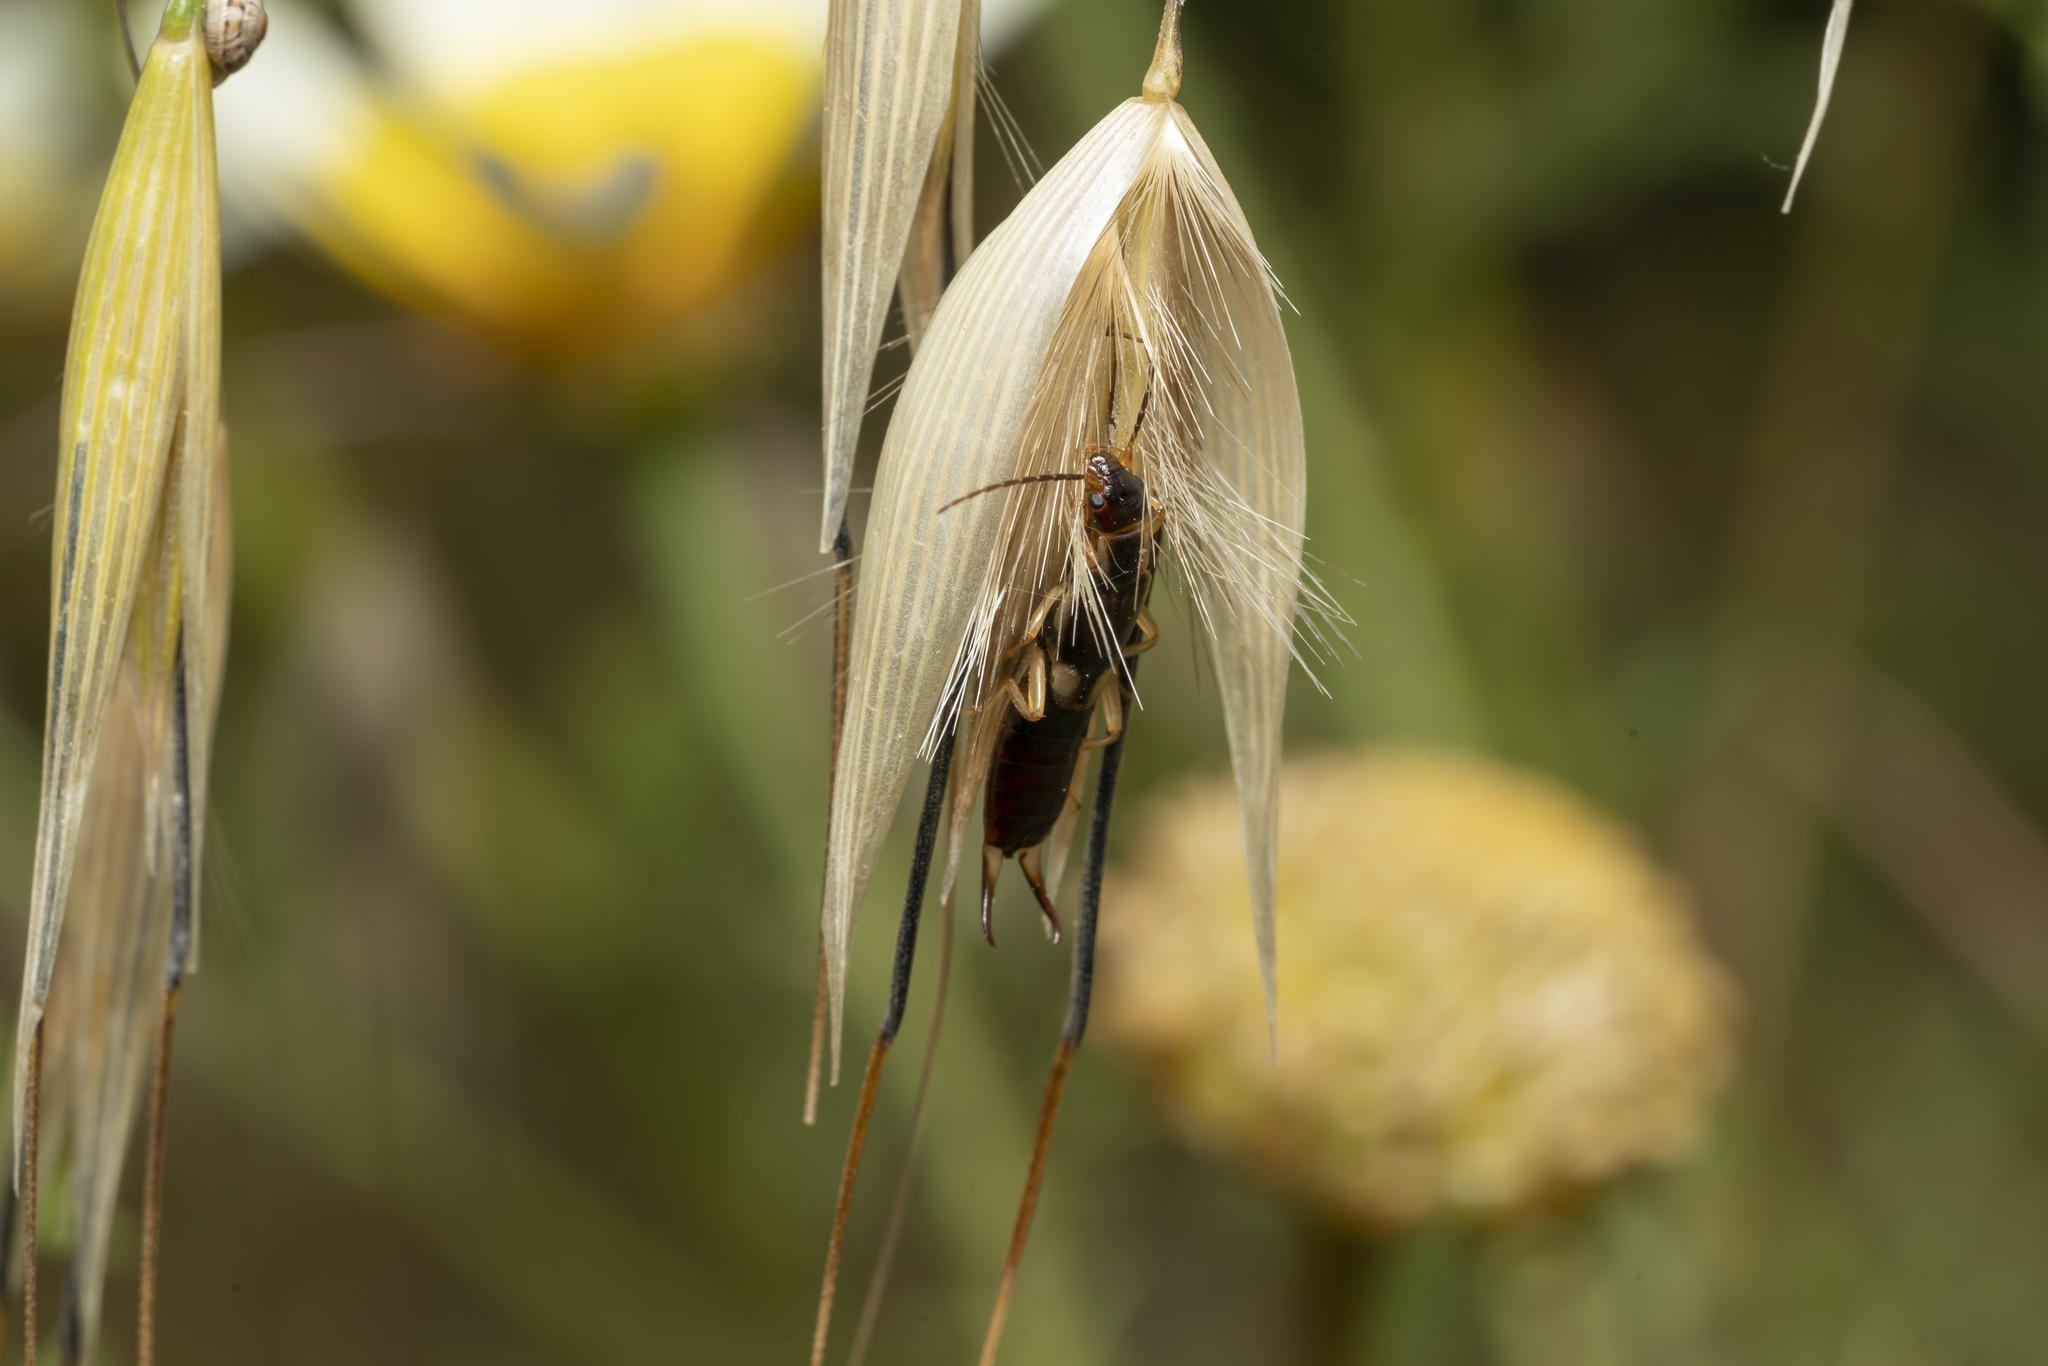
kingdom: Animalia
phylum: Arthropoda
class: Insecta
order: Dermaptera
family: Forficulidae
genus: Forficula
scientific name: Forficula lurida
